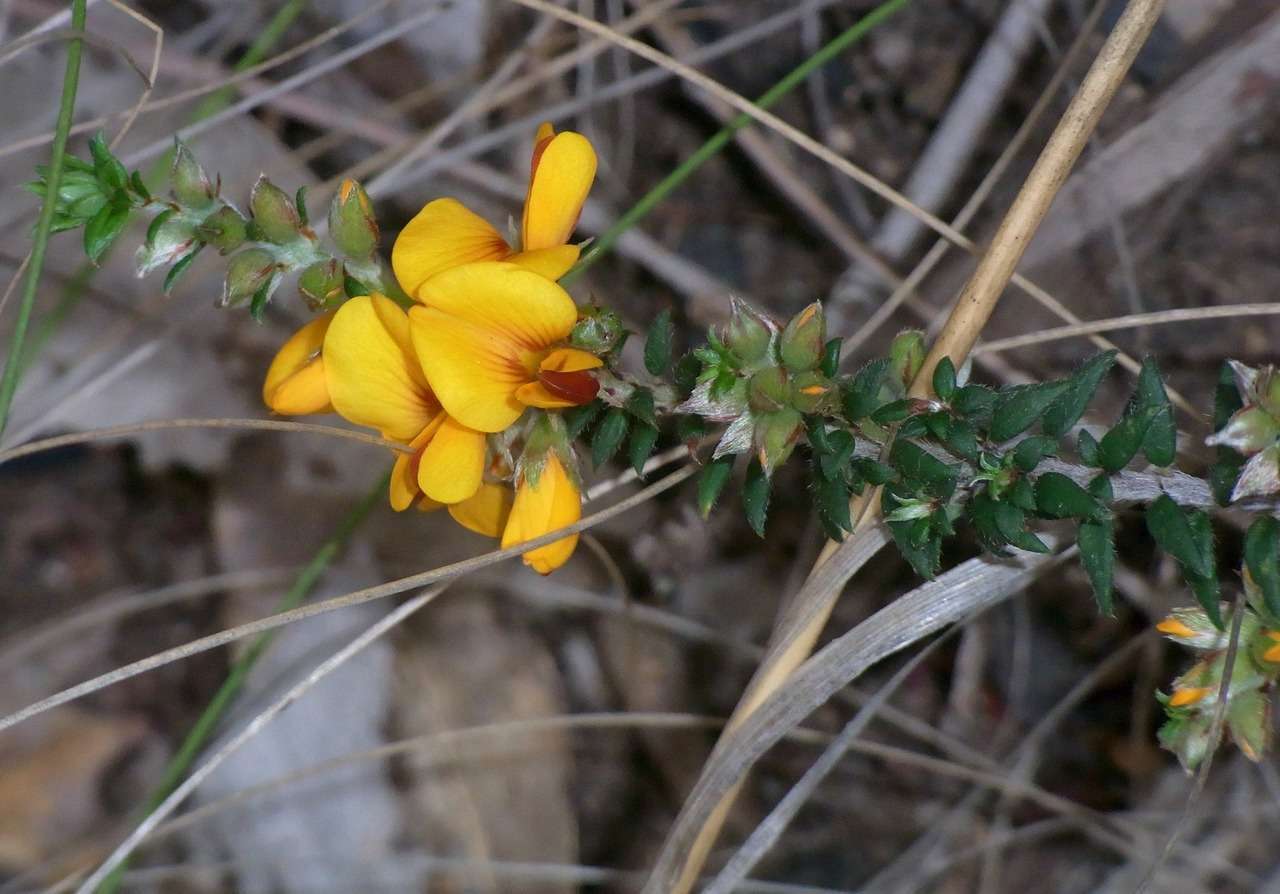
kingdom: Plantae
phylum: Tracheophyta
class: Magnoliopsida
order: Fabales
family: Fabaceae
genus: Pultenaea
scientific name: Pultenaea gunnii
